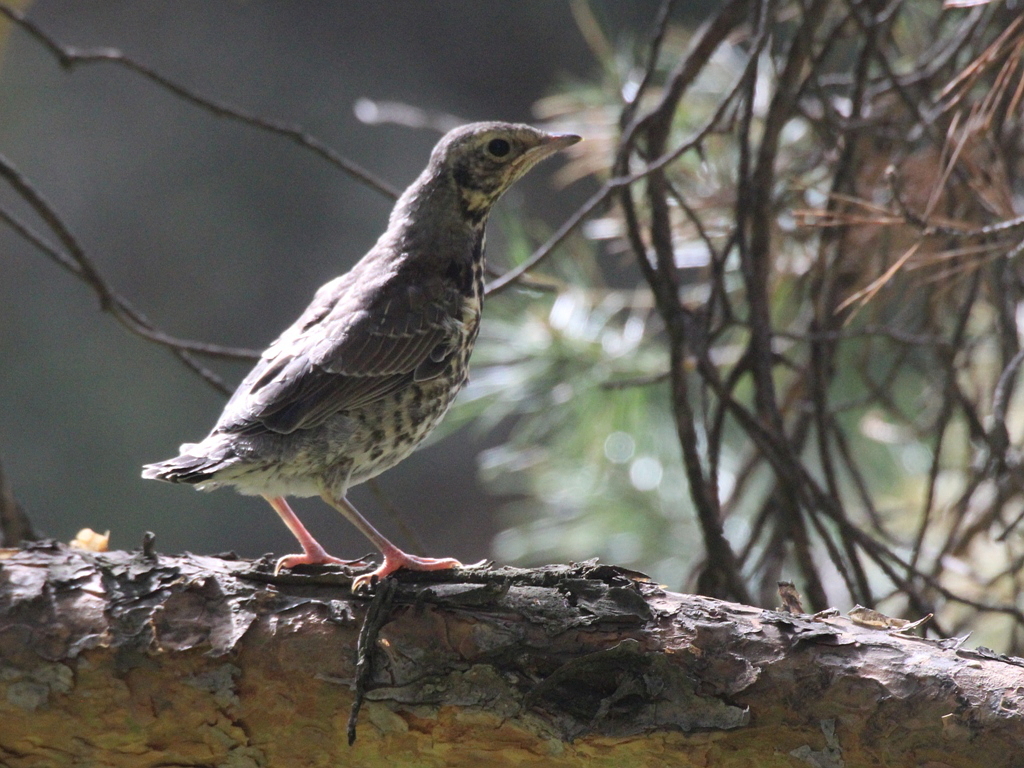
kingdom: Animalia
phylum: Chordata
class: Aves
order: Passeriformes
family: Turdidae
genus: Turdus
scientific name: Turdus pilaris
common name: Fieldfare
